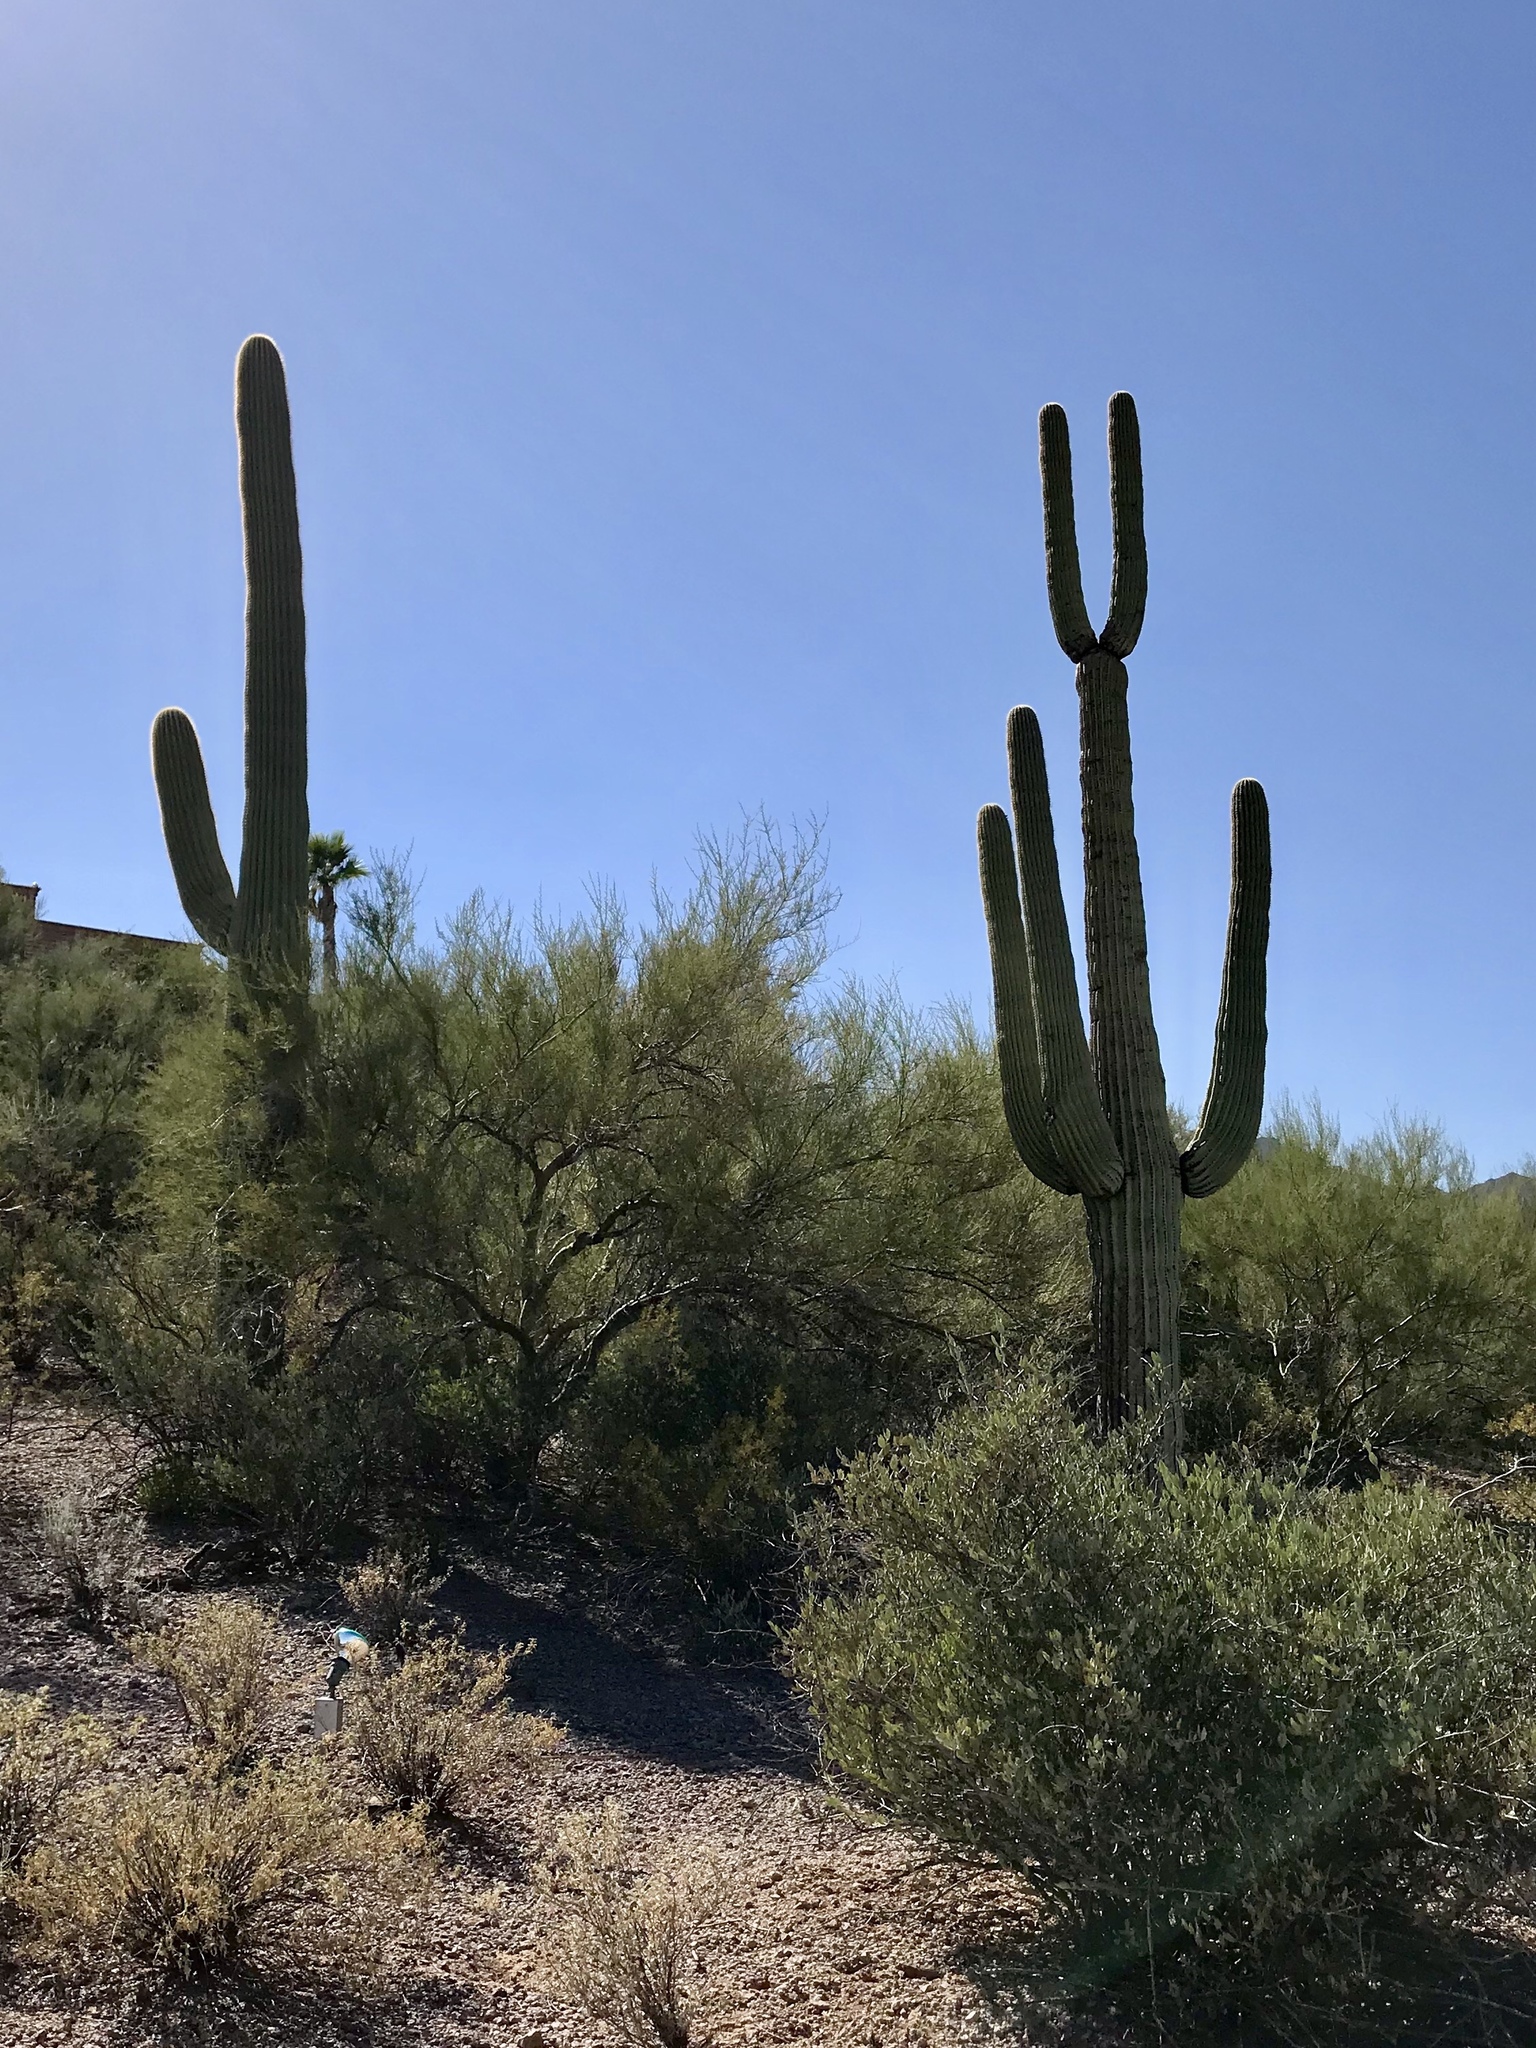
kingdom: Plantae
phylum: Tracheophyta
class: Magnoliopsida
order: Caryophyllales
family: Cactaceae
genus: Carnegiea
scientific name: Carnegiea gigantea
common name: Saguaro
